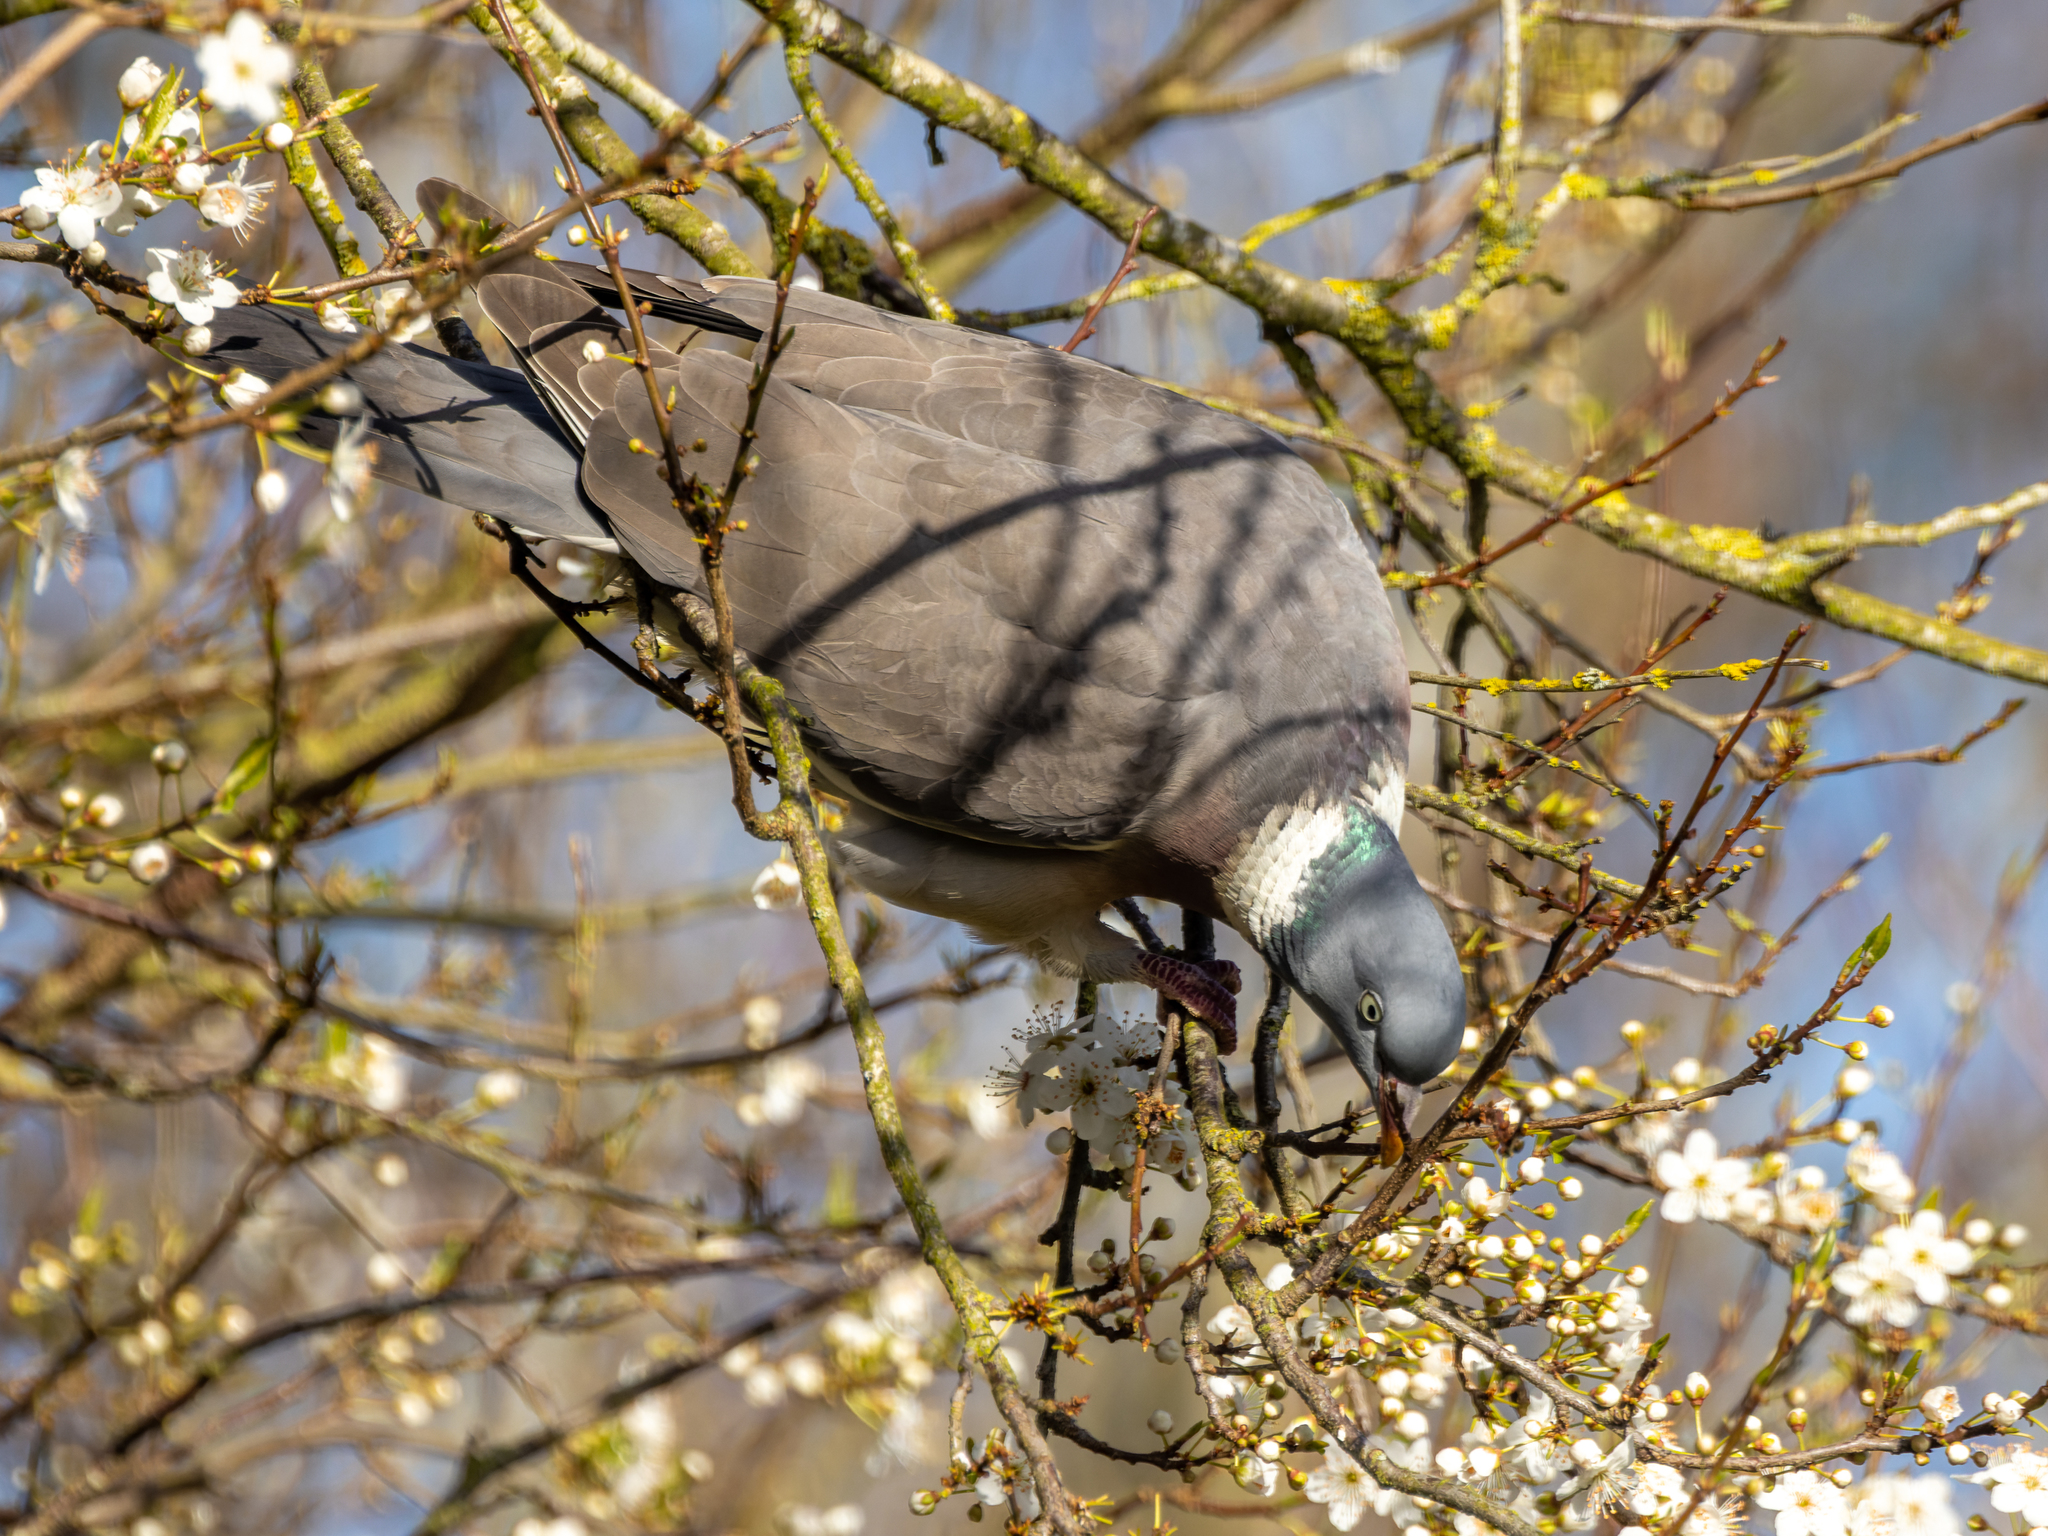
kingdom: Animalia
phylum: Chordata
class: Aves
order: Columbiformes
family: Columbidae
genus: Columba
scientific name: Columba palumbus
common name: Common wood pigeon
